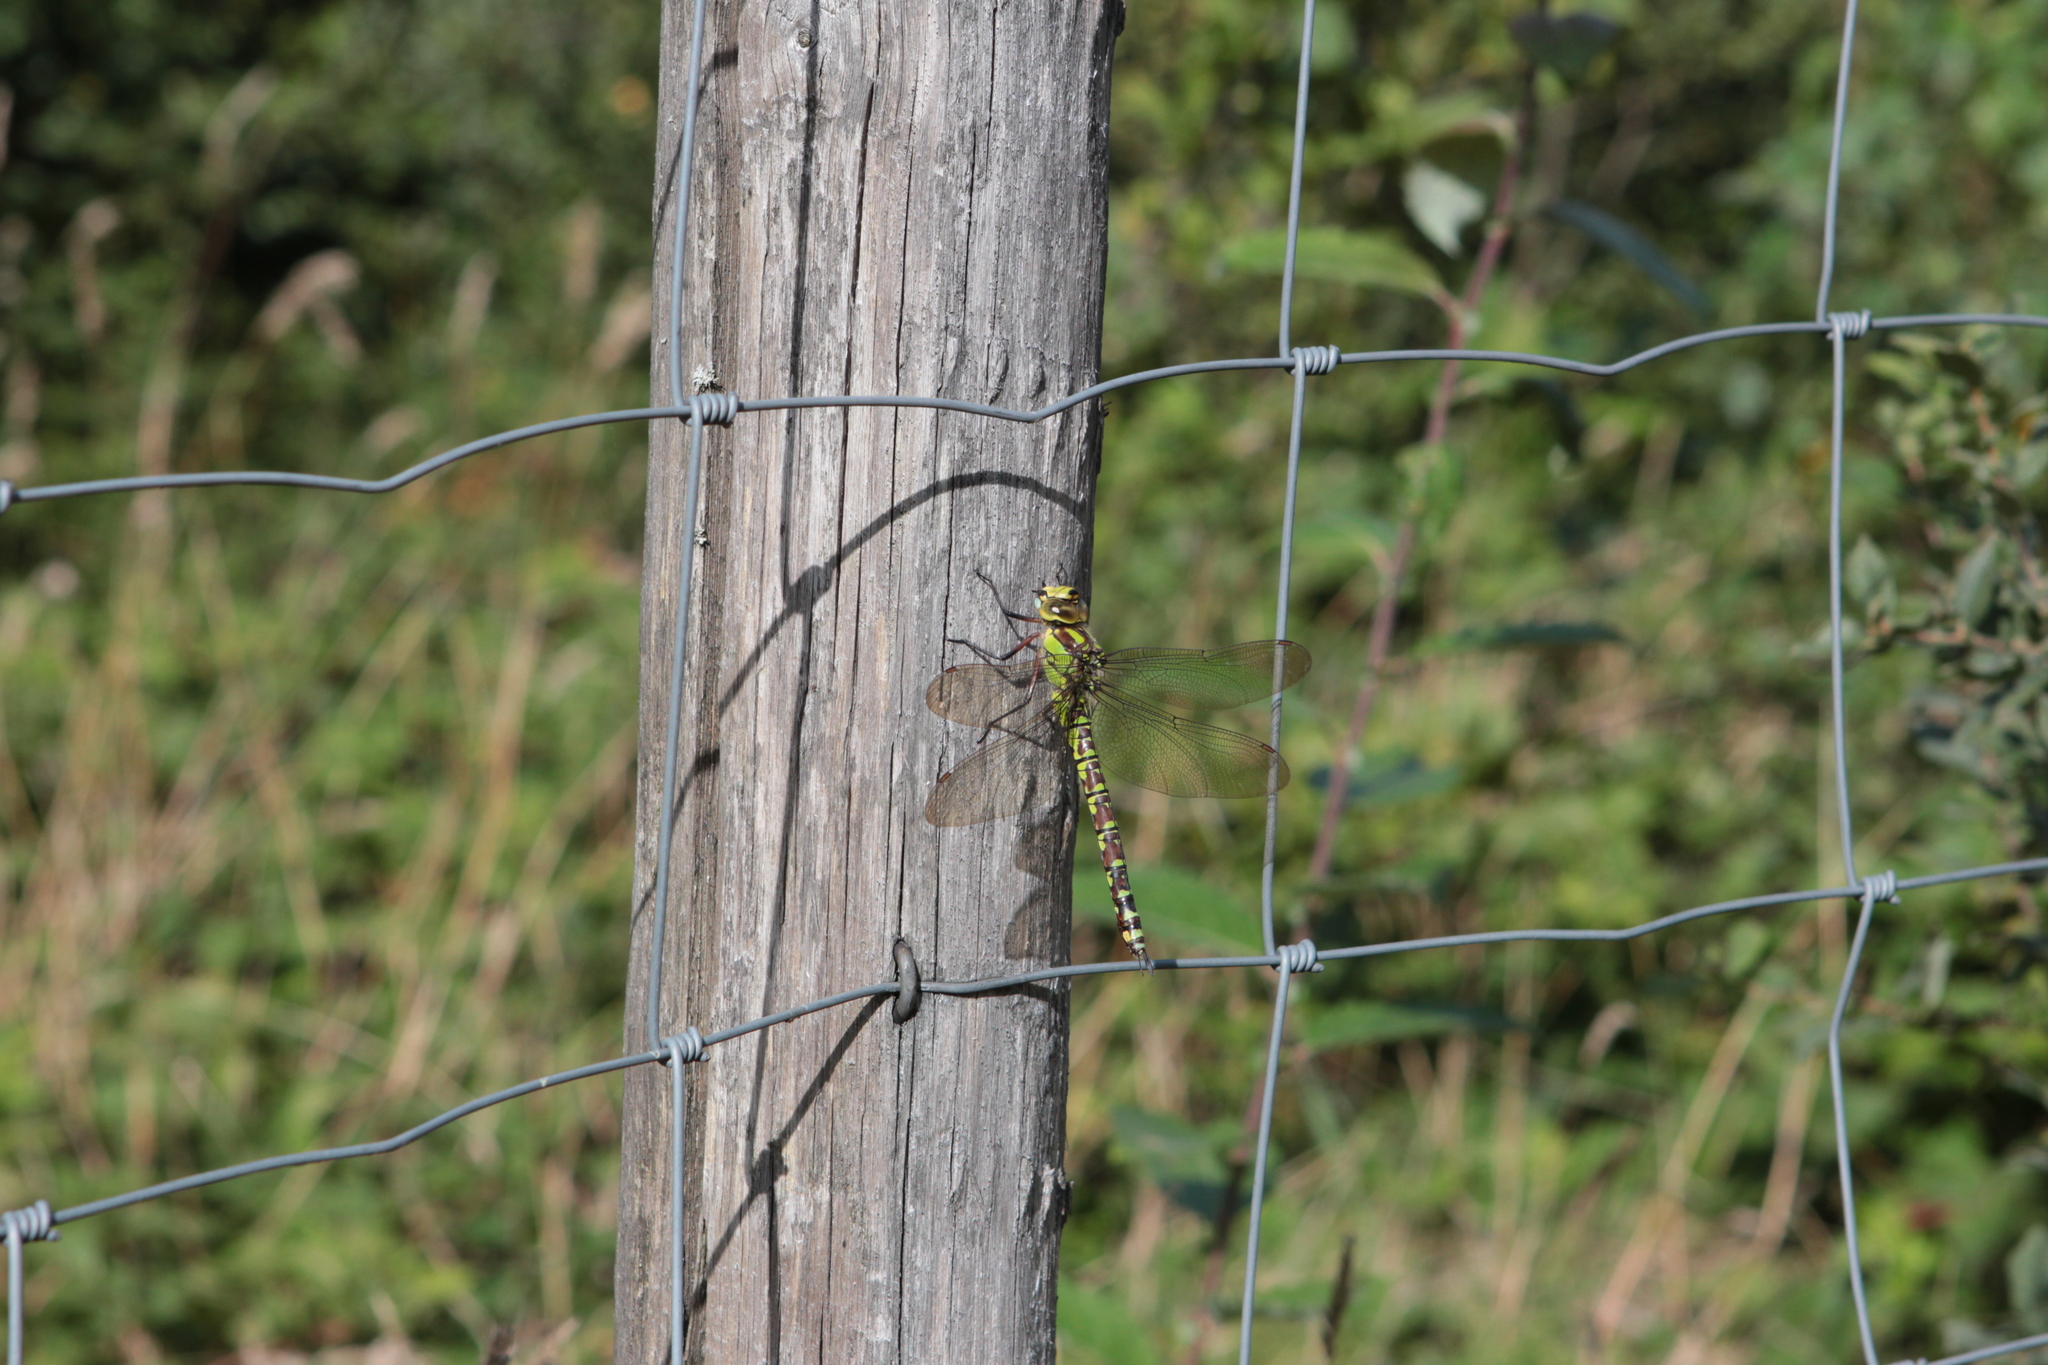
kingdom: Animalia
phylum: Arthropoda
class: Insecta
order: Odonata
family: Aeshnidae
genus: Aeshna
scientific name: Aeshna cyanea
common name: Southern hawker
